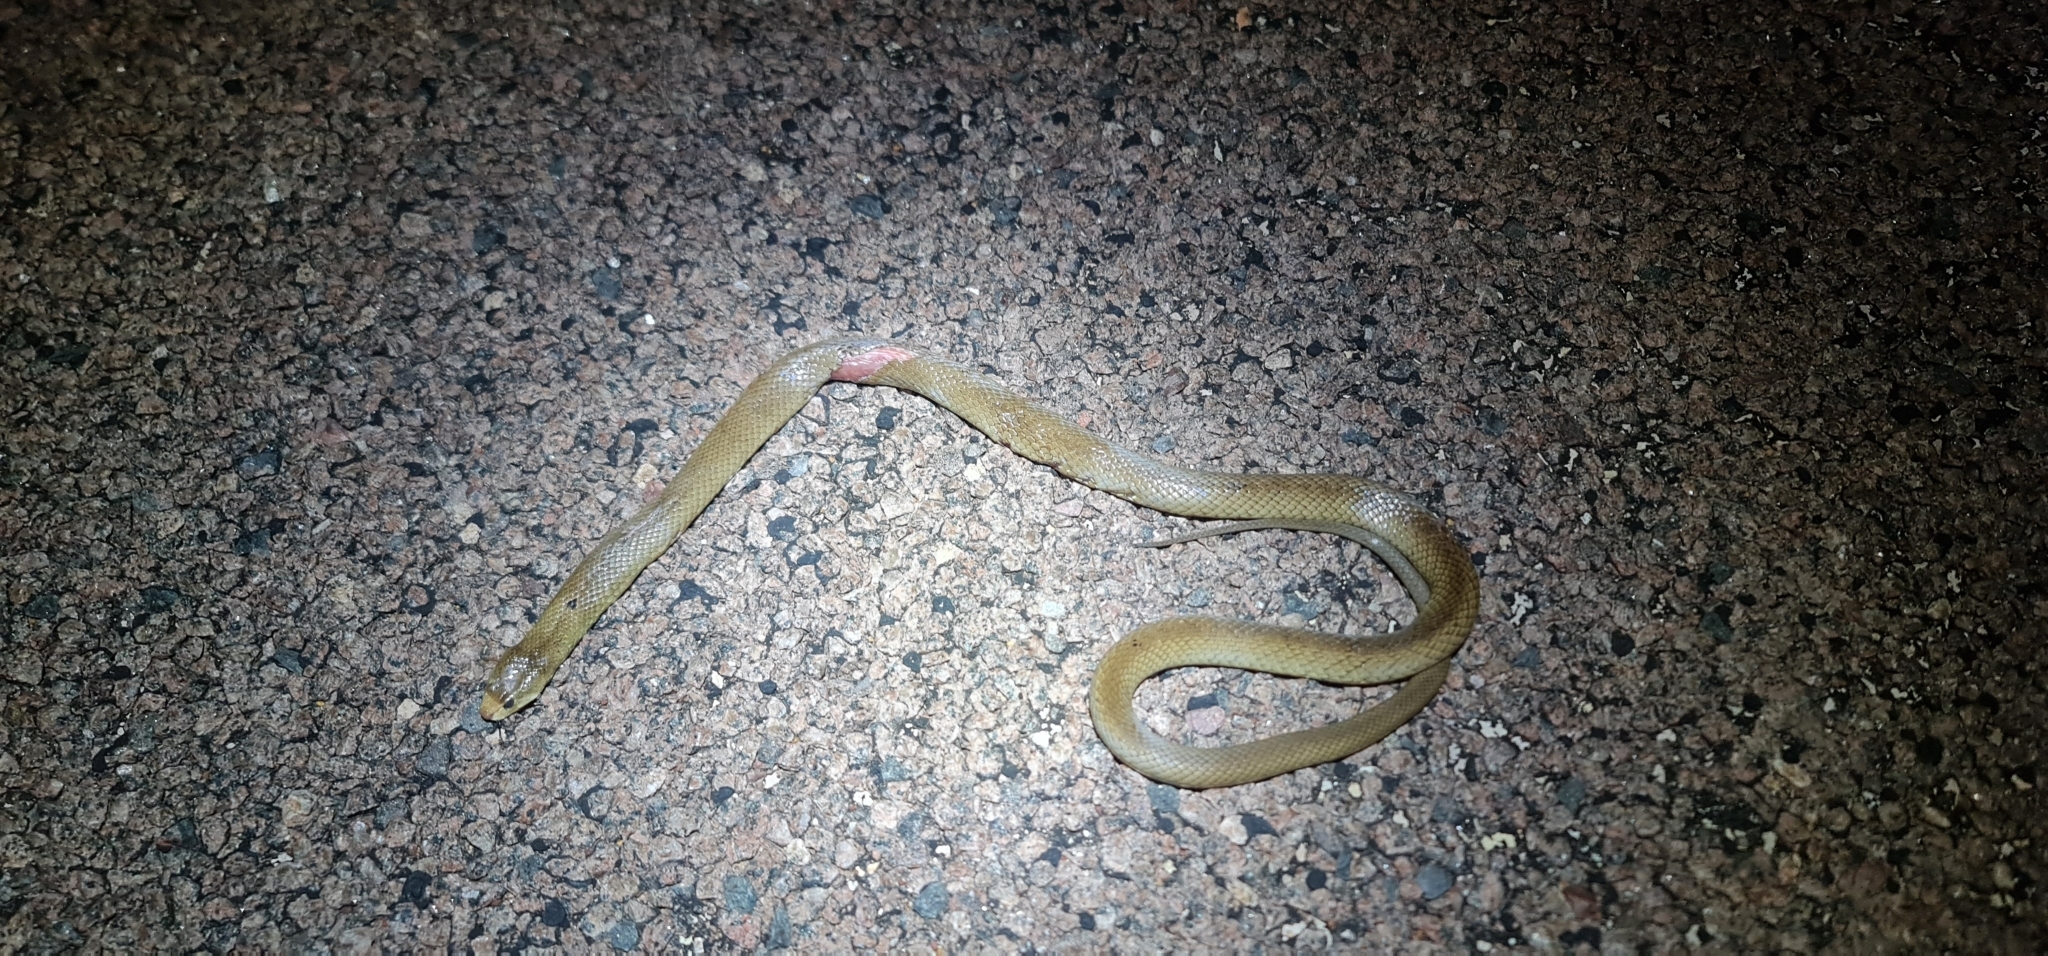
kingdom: Animalia
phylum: Chordata
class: Squamata
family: Elapidae
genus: Pseudonaja
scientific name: Pseudonaja nuchalis
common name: Gwardar
